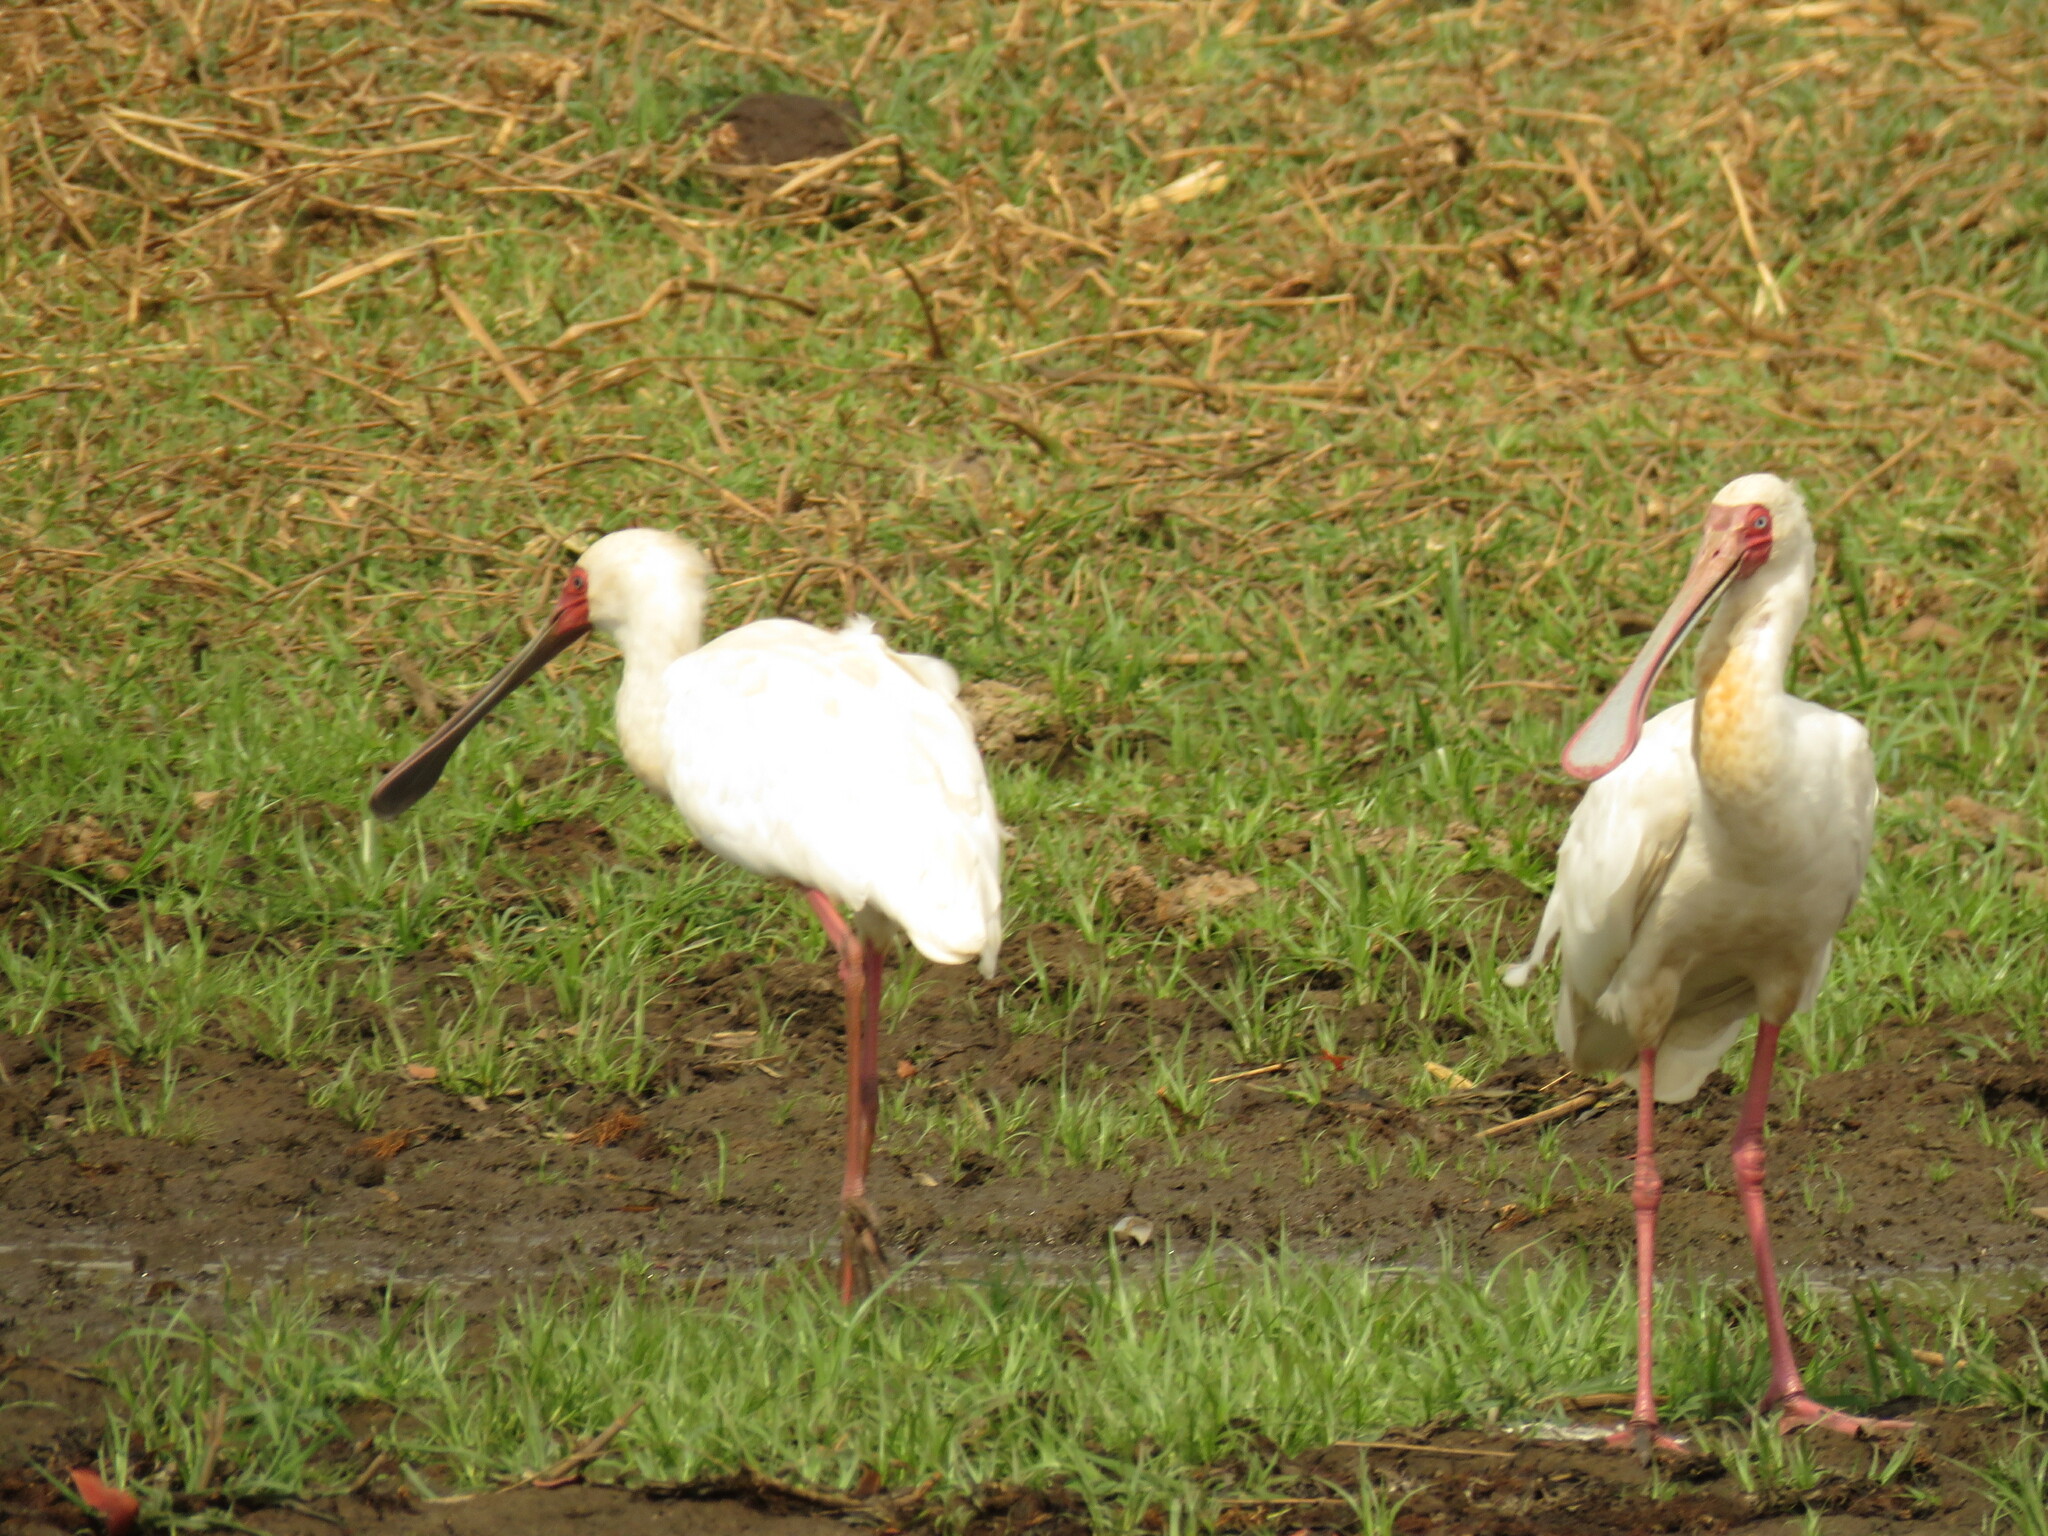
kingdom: Animalia
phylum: Chordata
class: Aves
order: Pelecaniformes
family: Threskiornithidae
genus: Platalea
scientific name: Platalea alba
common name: African spoonbill
